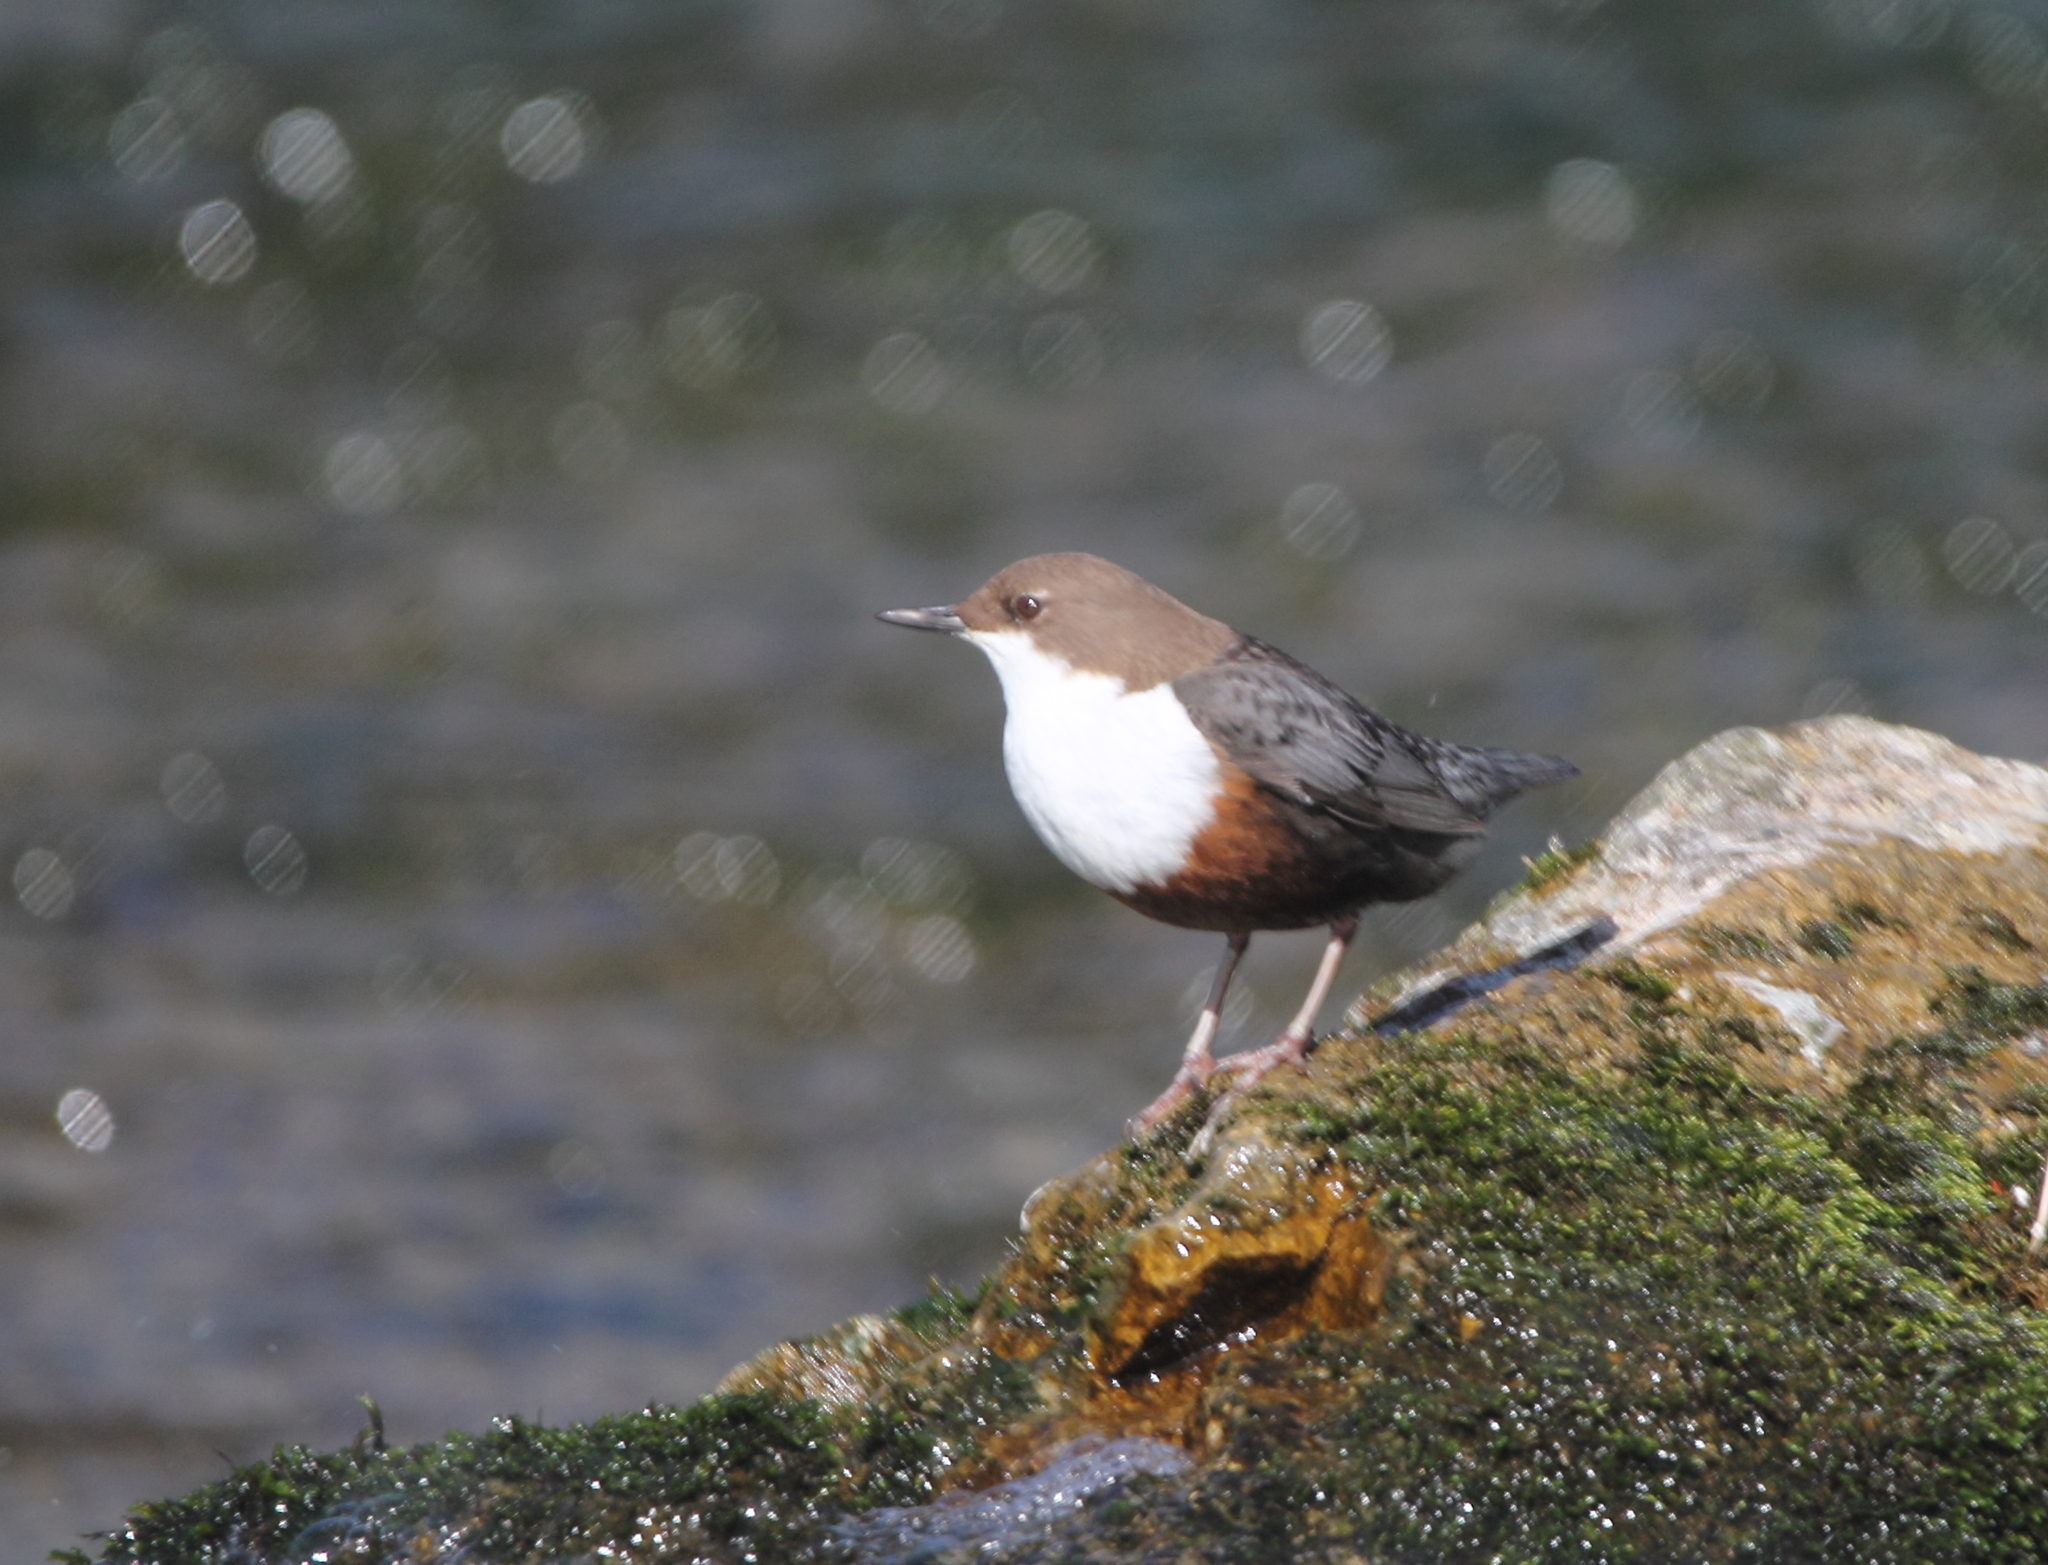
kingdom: Animalia
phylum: Chordata
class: Aves
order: Passeriformes
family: Cinclidae
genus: Cinclus
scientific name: Cinclus cinclus
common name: White-throated dipper
